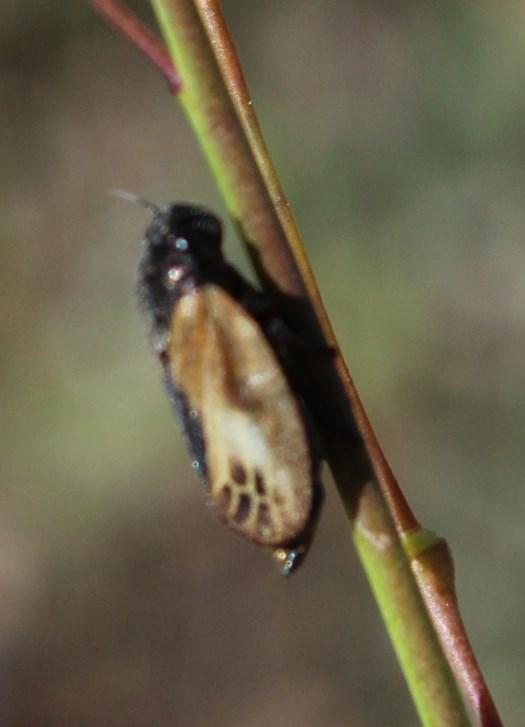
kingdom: Animalia
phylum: Arthropoda
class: Insecta
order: Hemiptera
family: Cercopidae
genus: Rhinaulax
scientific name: Rhinaulax analis
